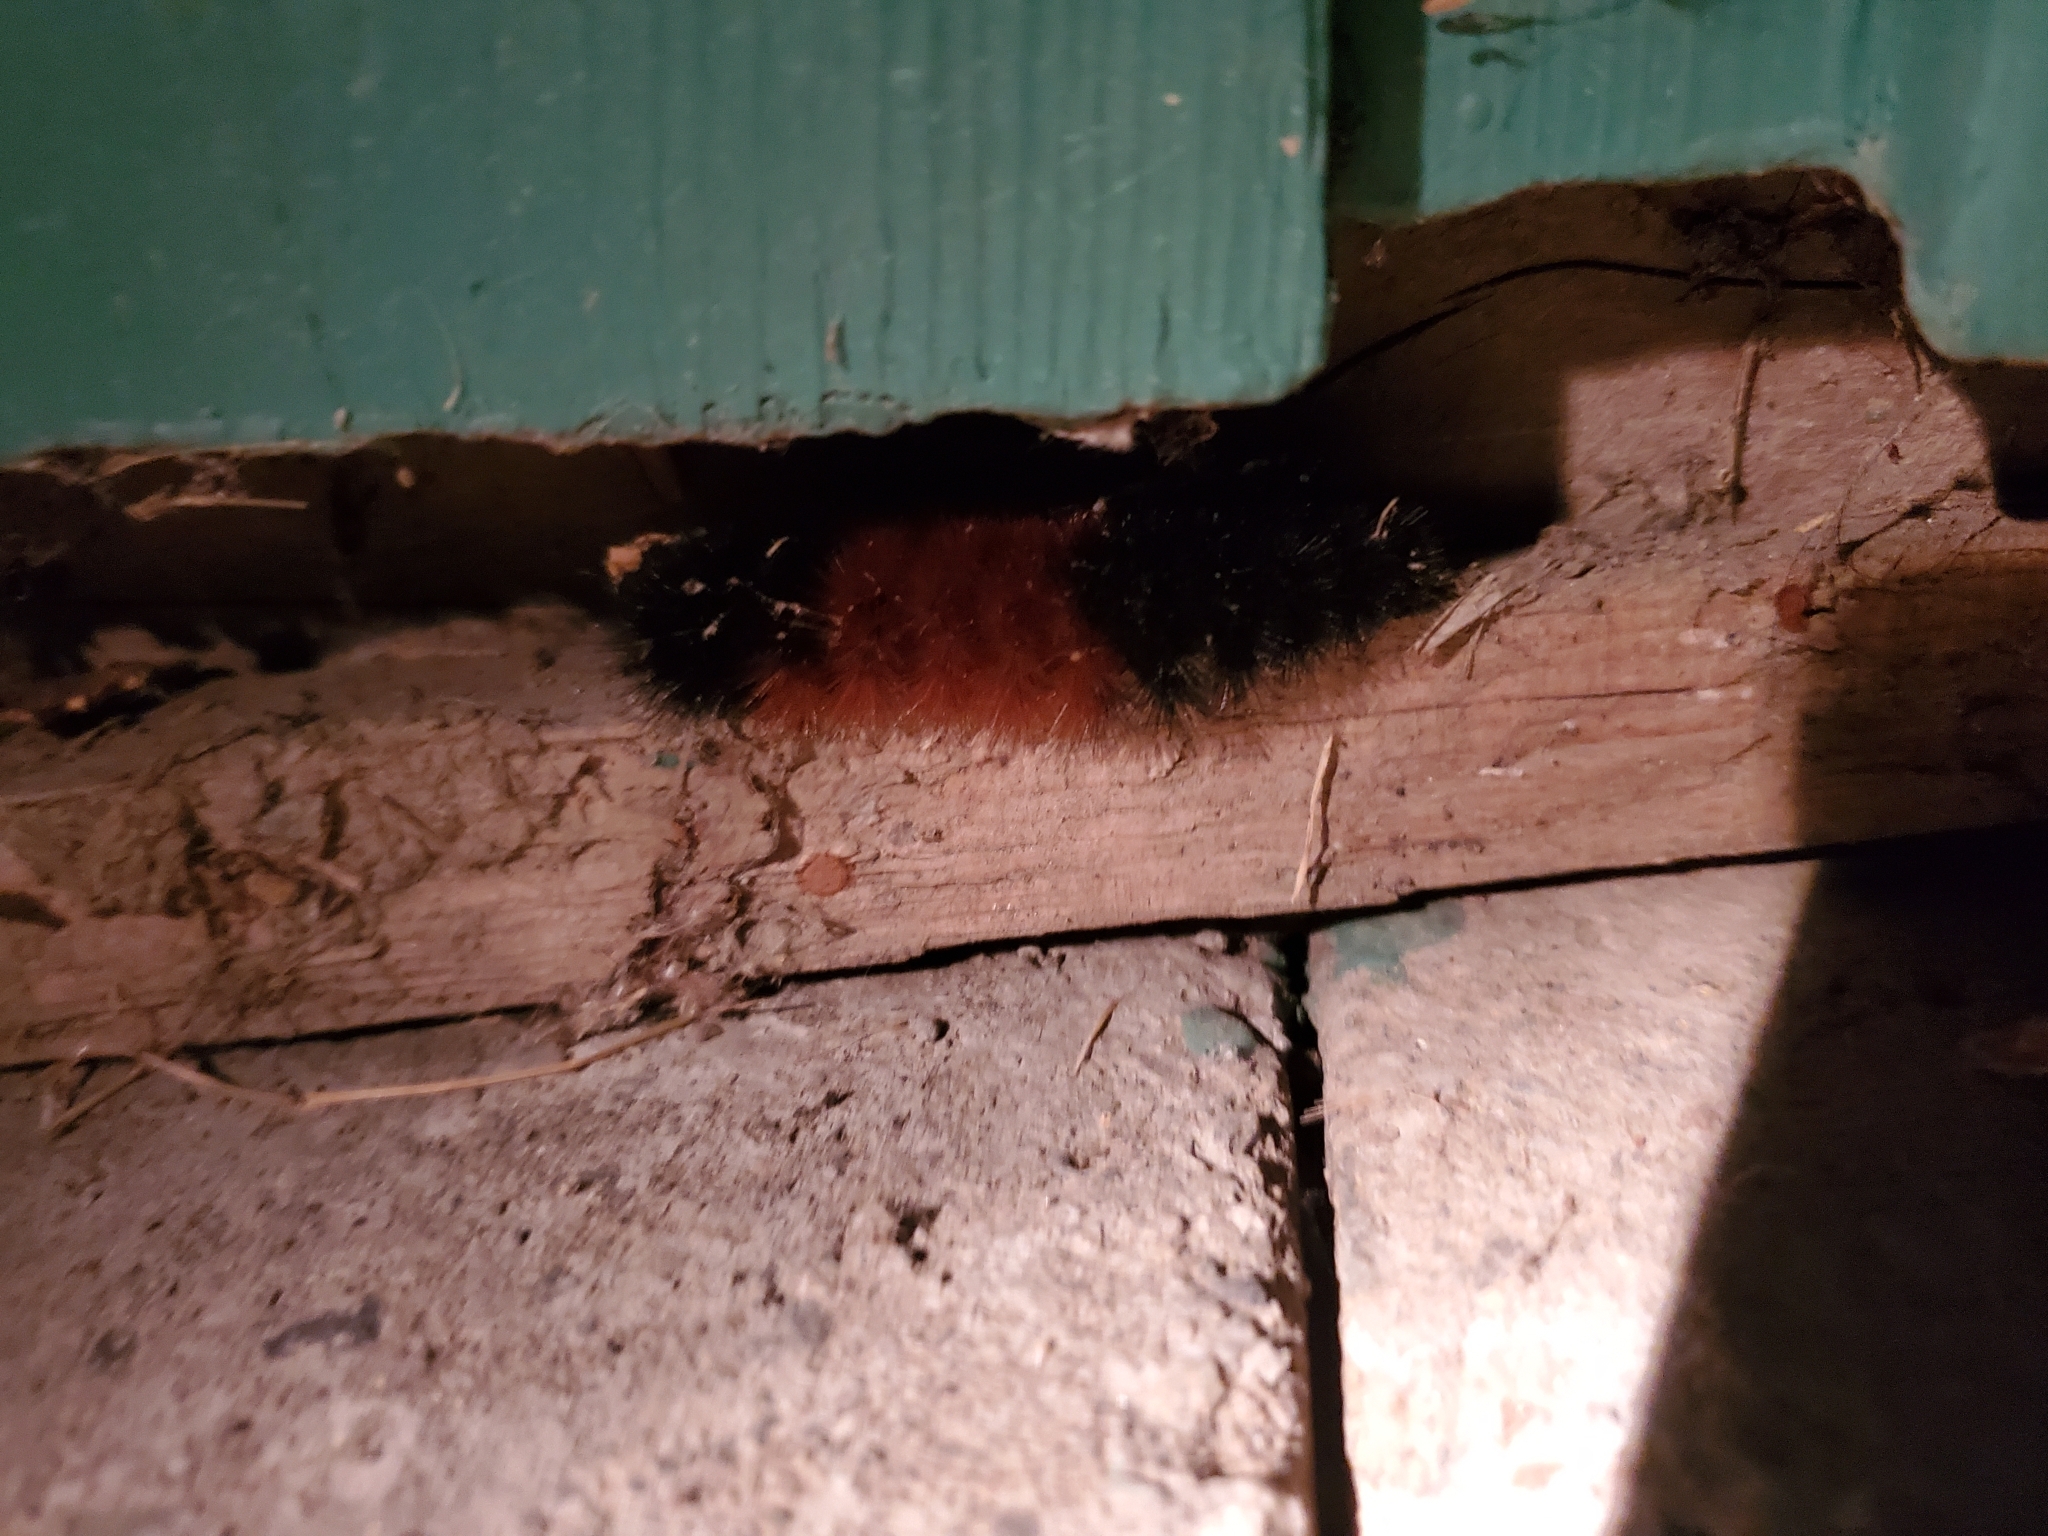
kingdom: Animalia
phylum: Arthropoda
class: Insecta
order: Lepidoptera
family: Erebidae
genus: Pyrrharctia
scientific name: Pyrrharctia isabella
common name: Isabella tiger moth
